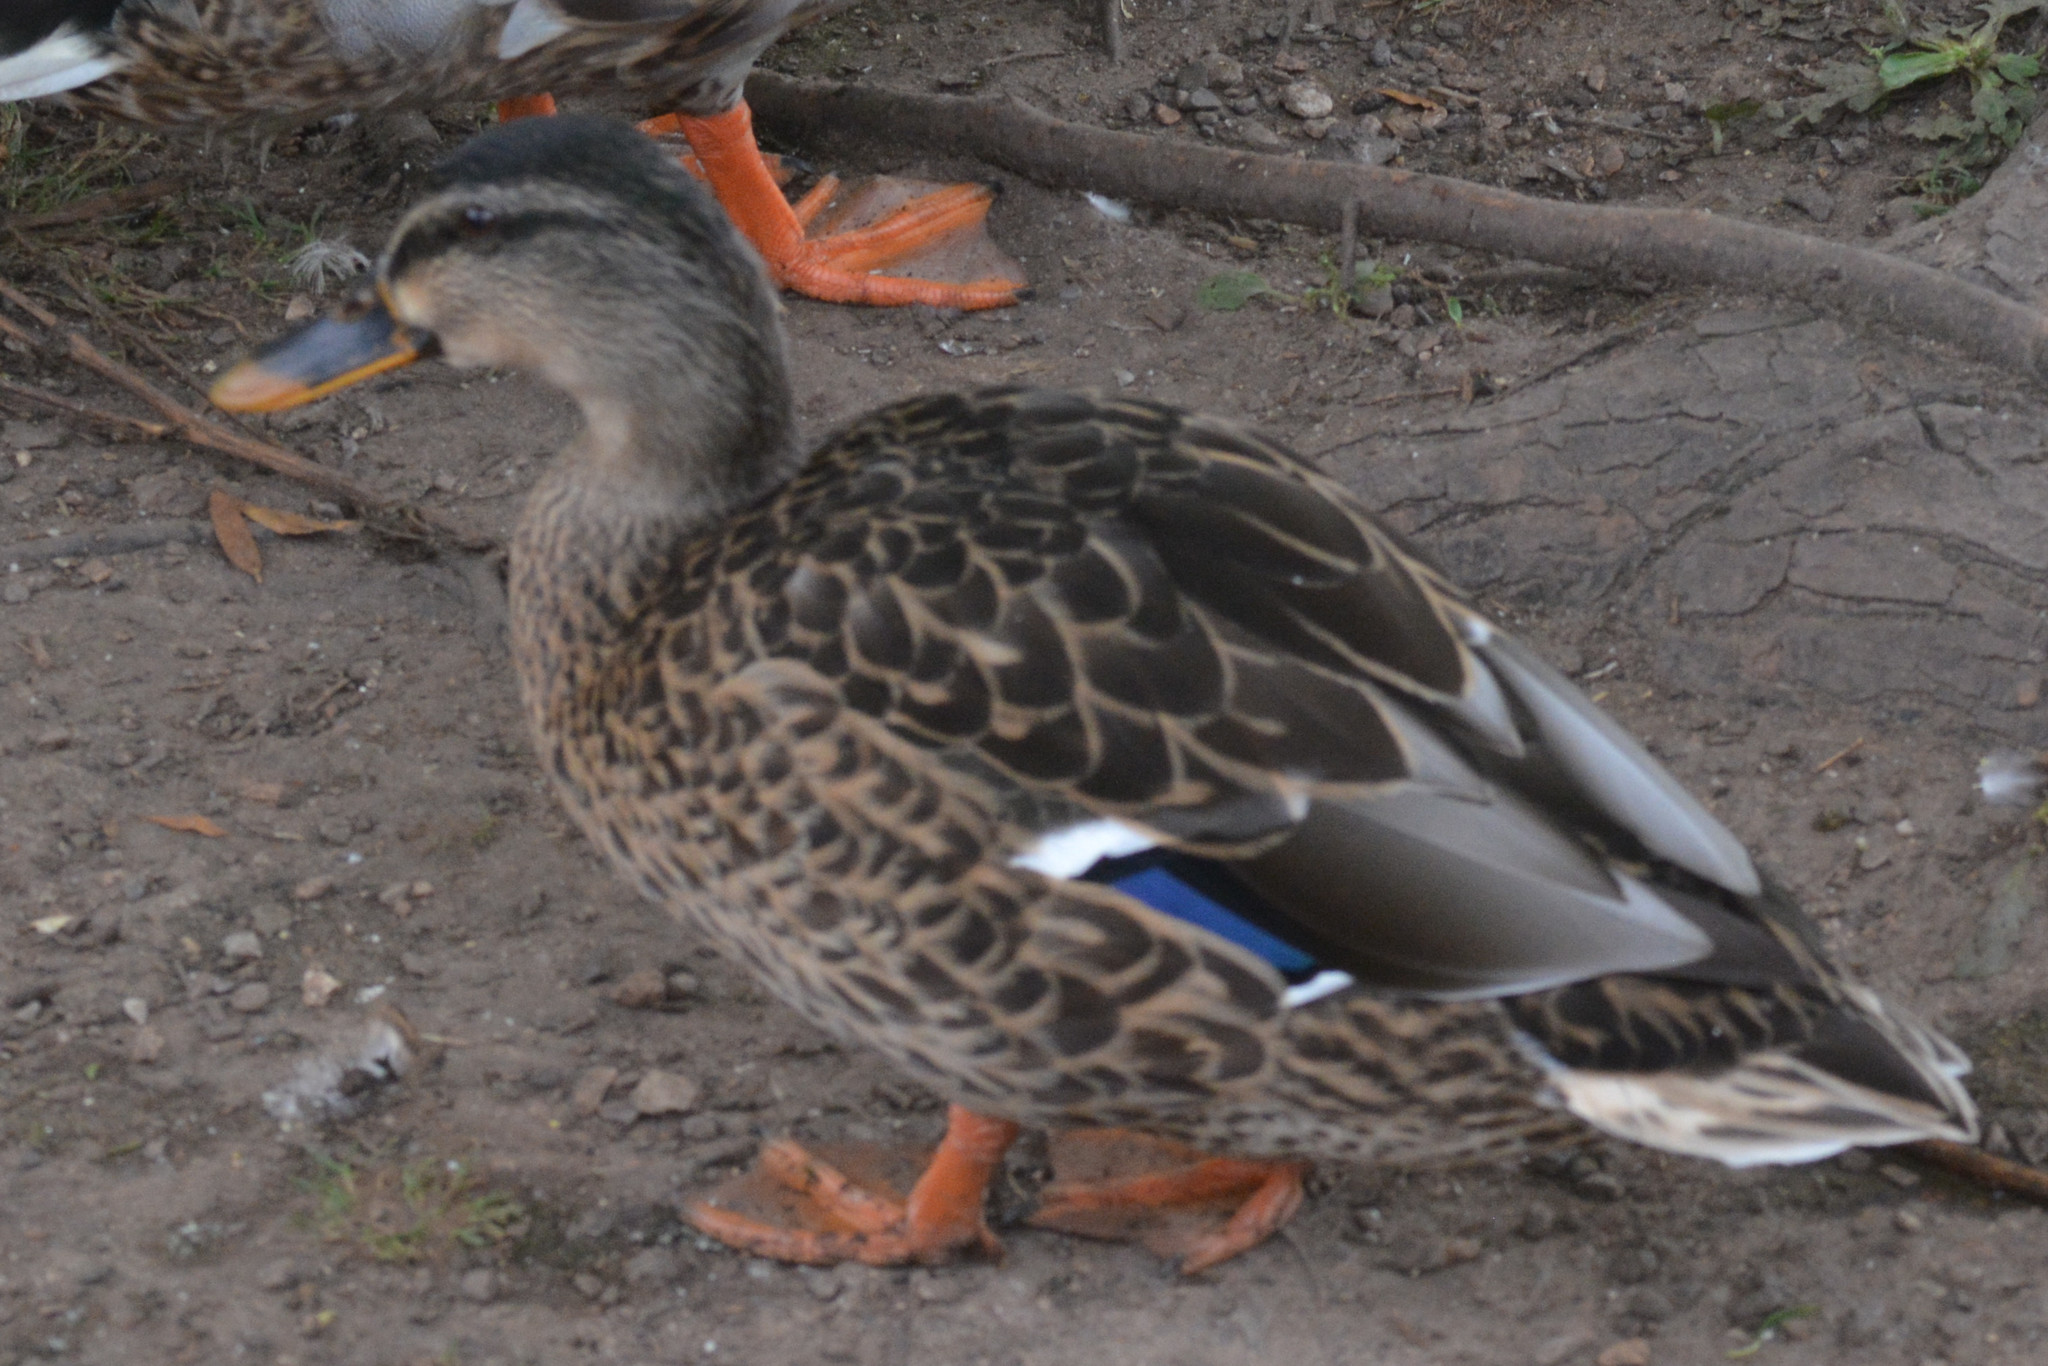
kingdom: Animalia
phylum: Chordata
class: Aves
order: Anseriformes
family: Anatidae
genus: Anas
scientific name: Anas platyrhynchos
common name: Mallard
